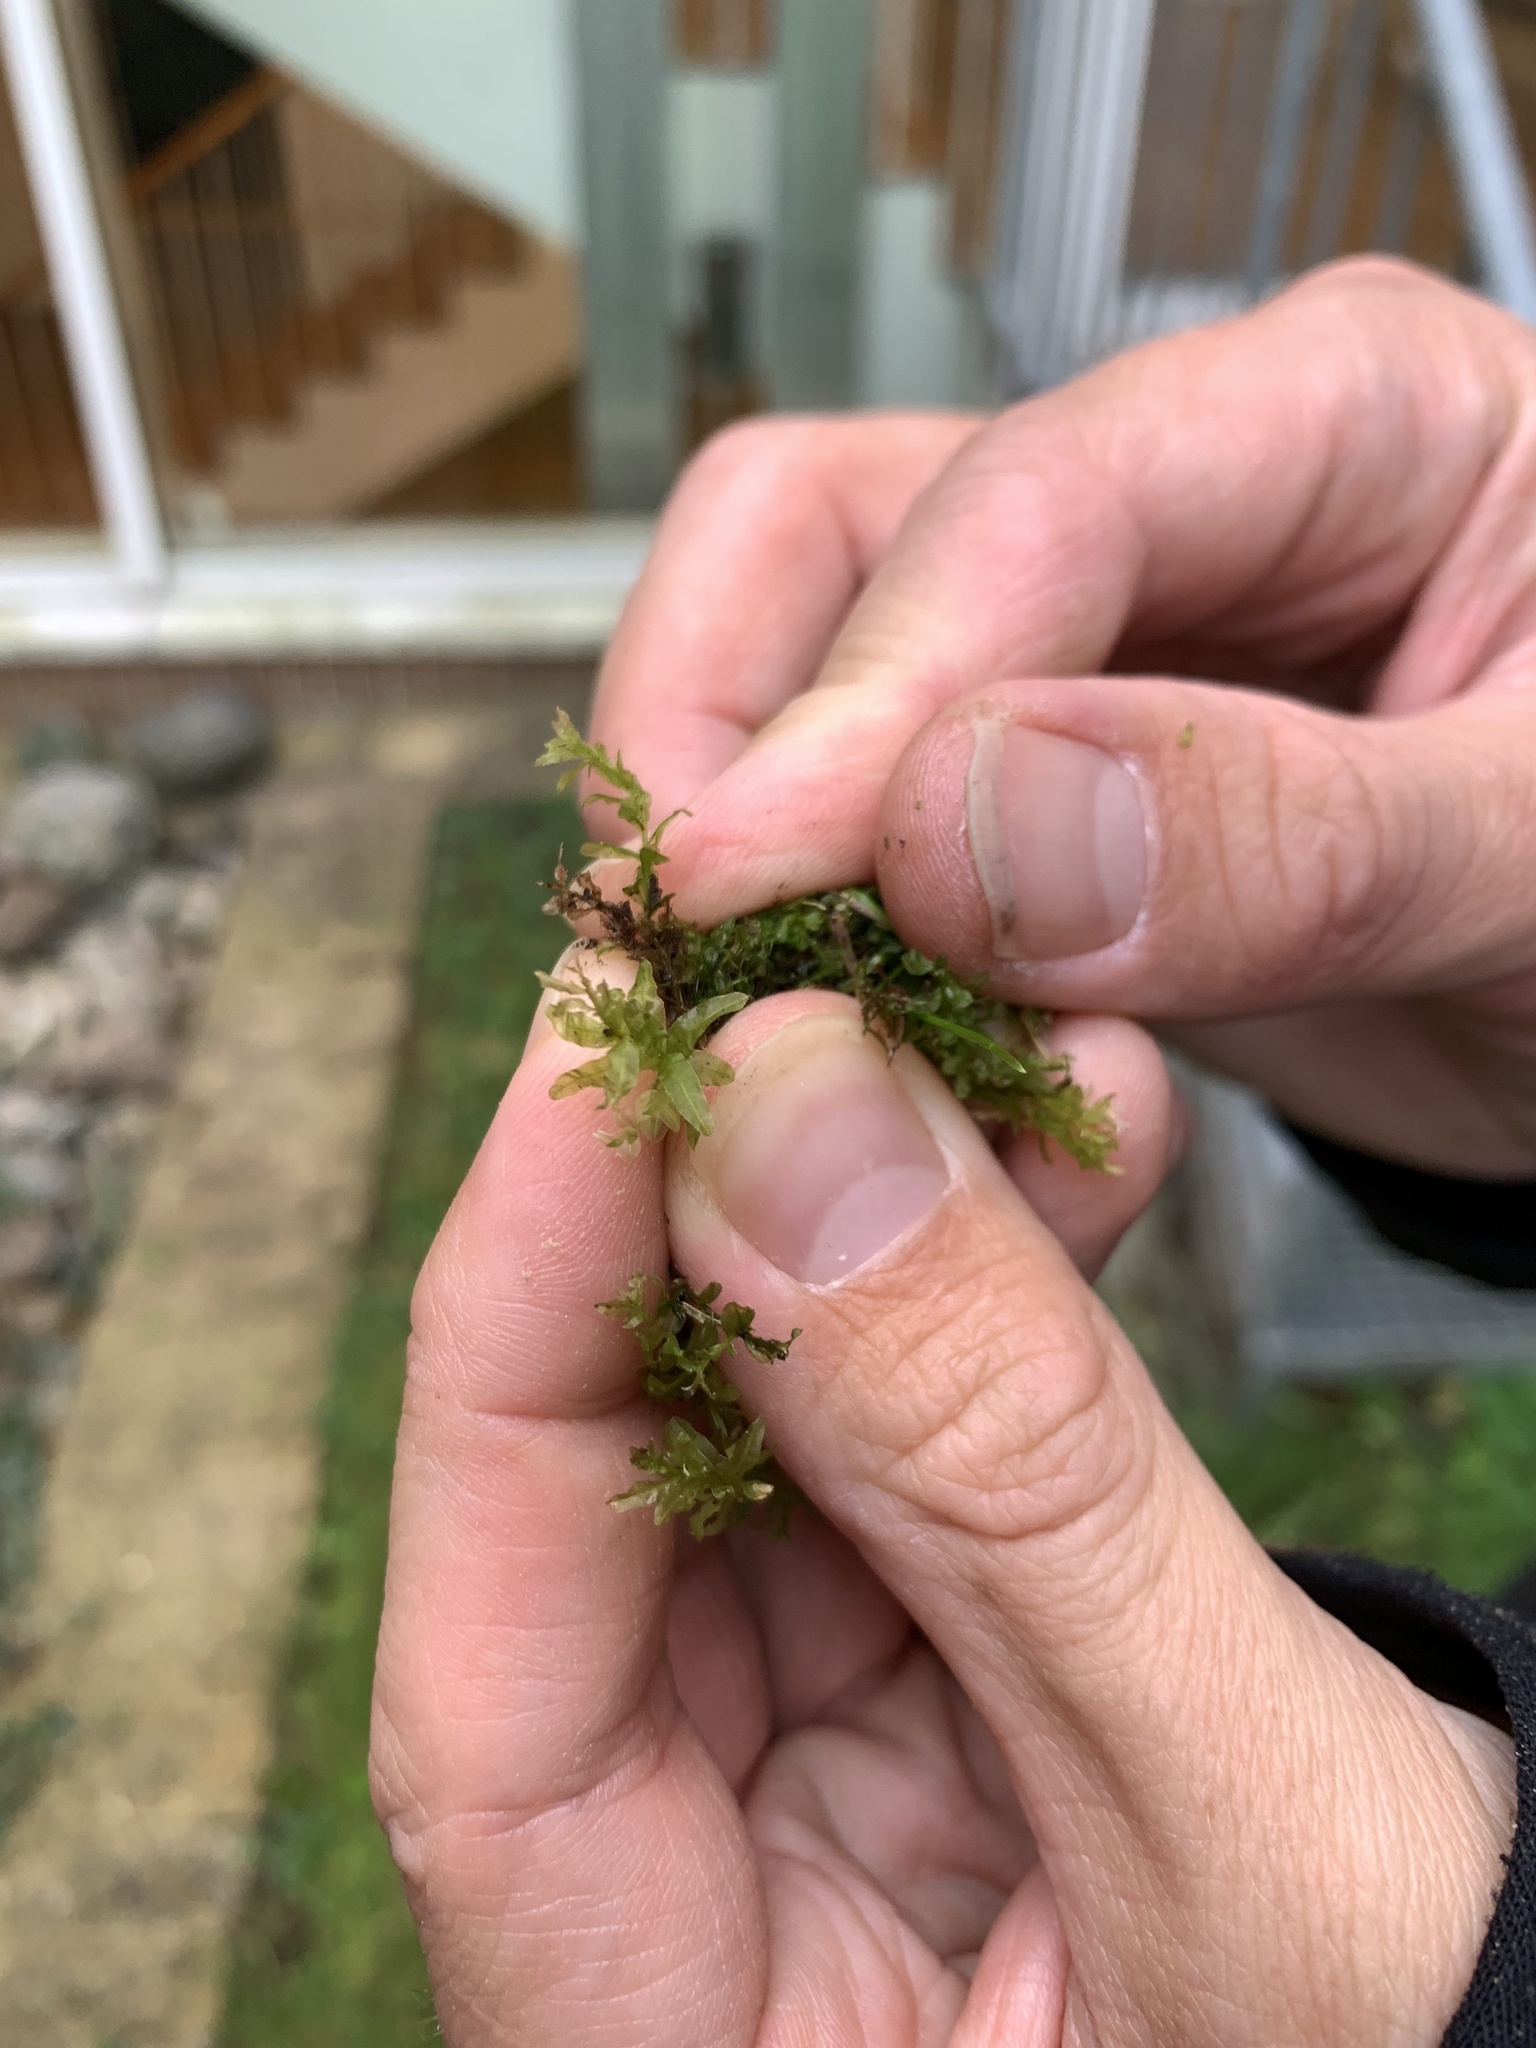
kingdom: Plantae
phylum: Bryophyta
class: Bryopsida
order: Bryales
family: Mniaceae
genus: Plagiomnium
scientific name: Plagiomnium undulatum
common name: Hart's-tongue thyme-moss
